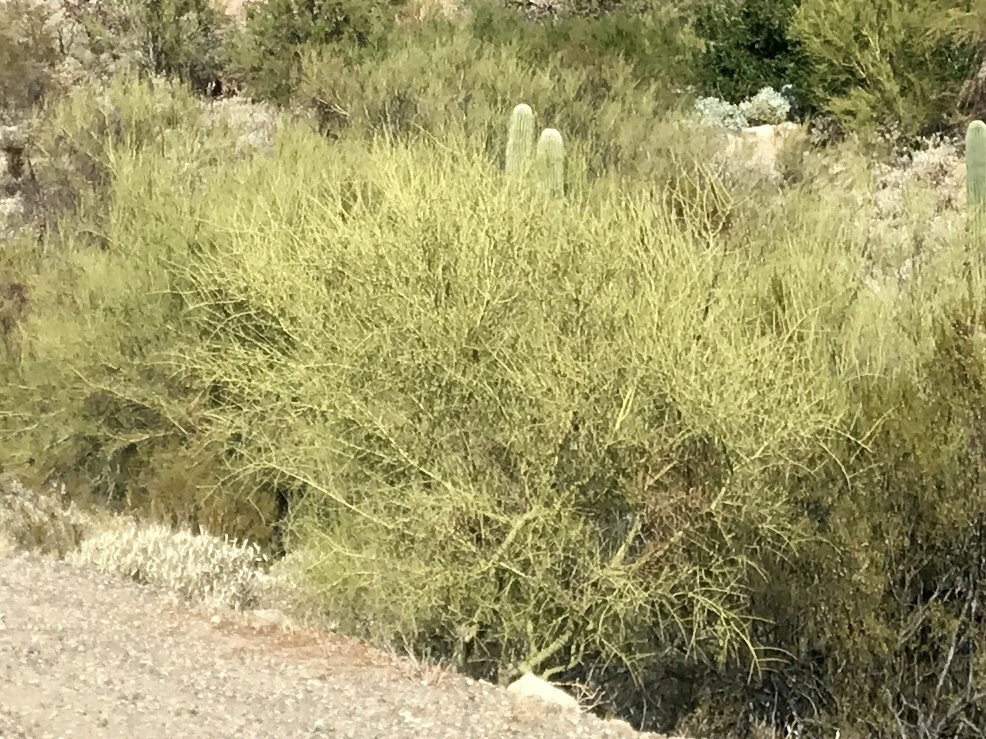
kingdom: Plantae
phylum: Tracheophyta
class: Magnoliopsida
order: Fabales
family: Fabaceae
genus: Parkinsonia
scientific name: Parkinsonia microphylla
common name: Yellow paloverde
